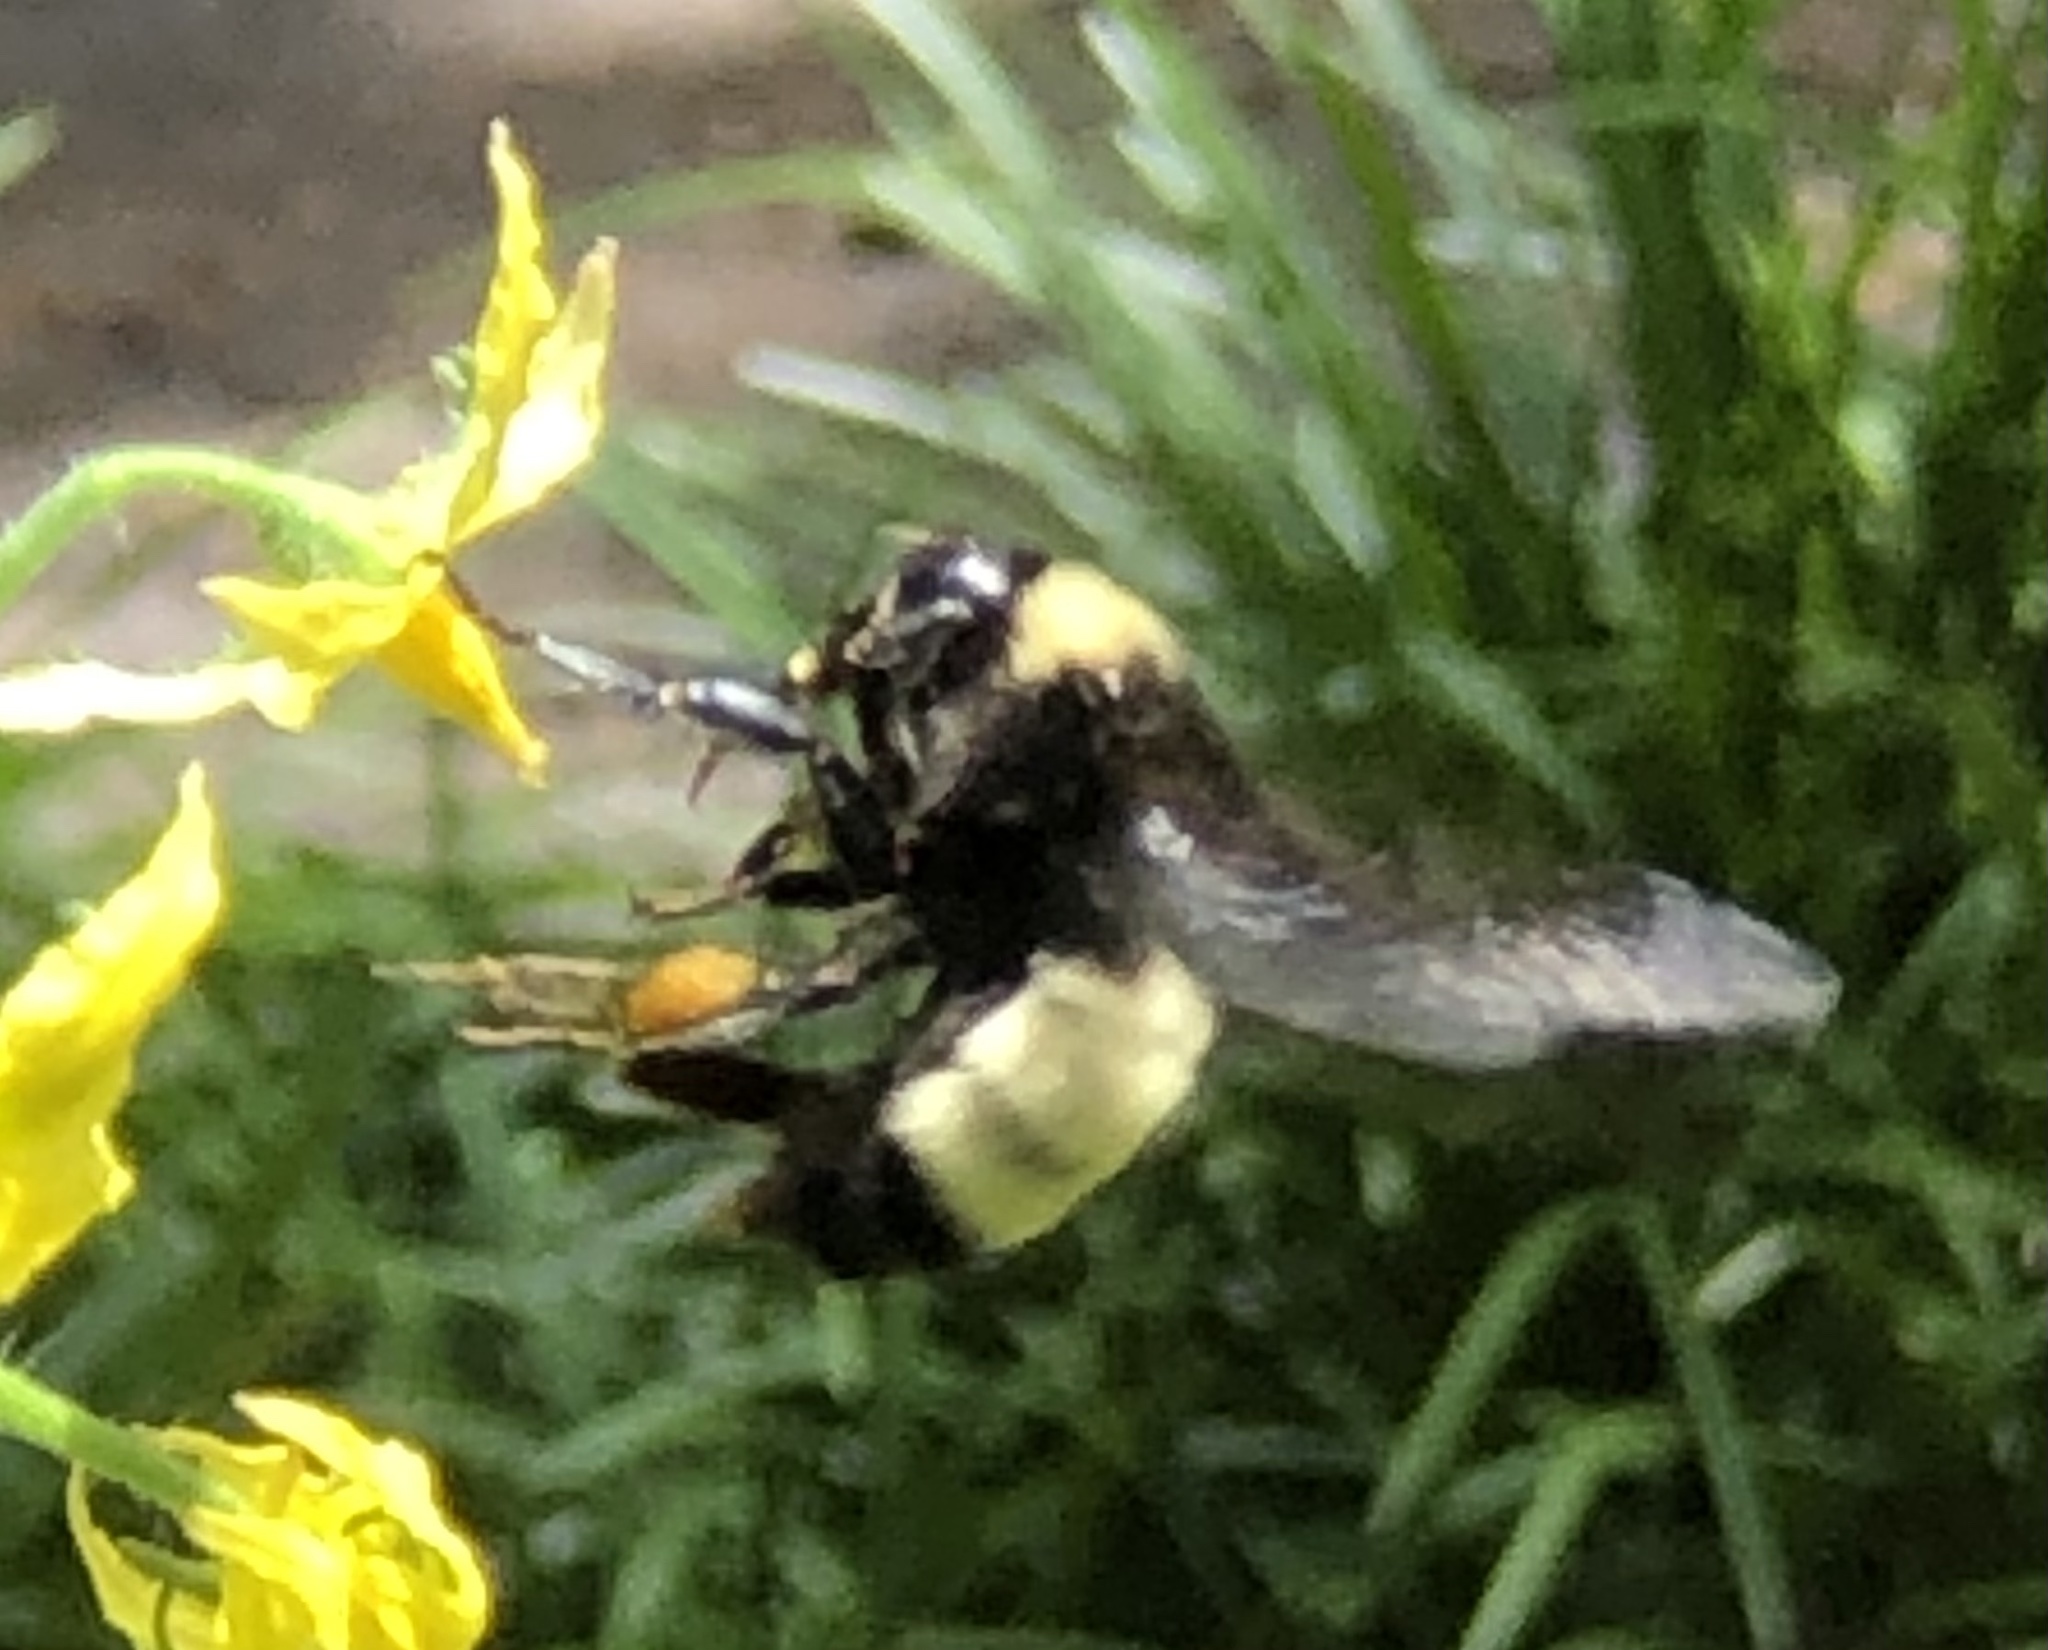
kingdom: Animalia
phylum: Arthropoda
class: Insecta
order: Hymenoptera
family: Apidae
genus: Bombus
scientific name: Bombus pensylvanicus
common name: Bumble bee
